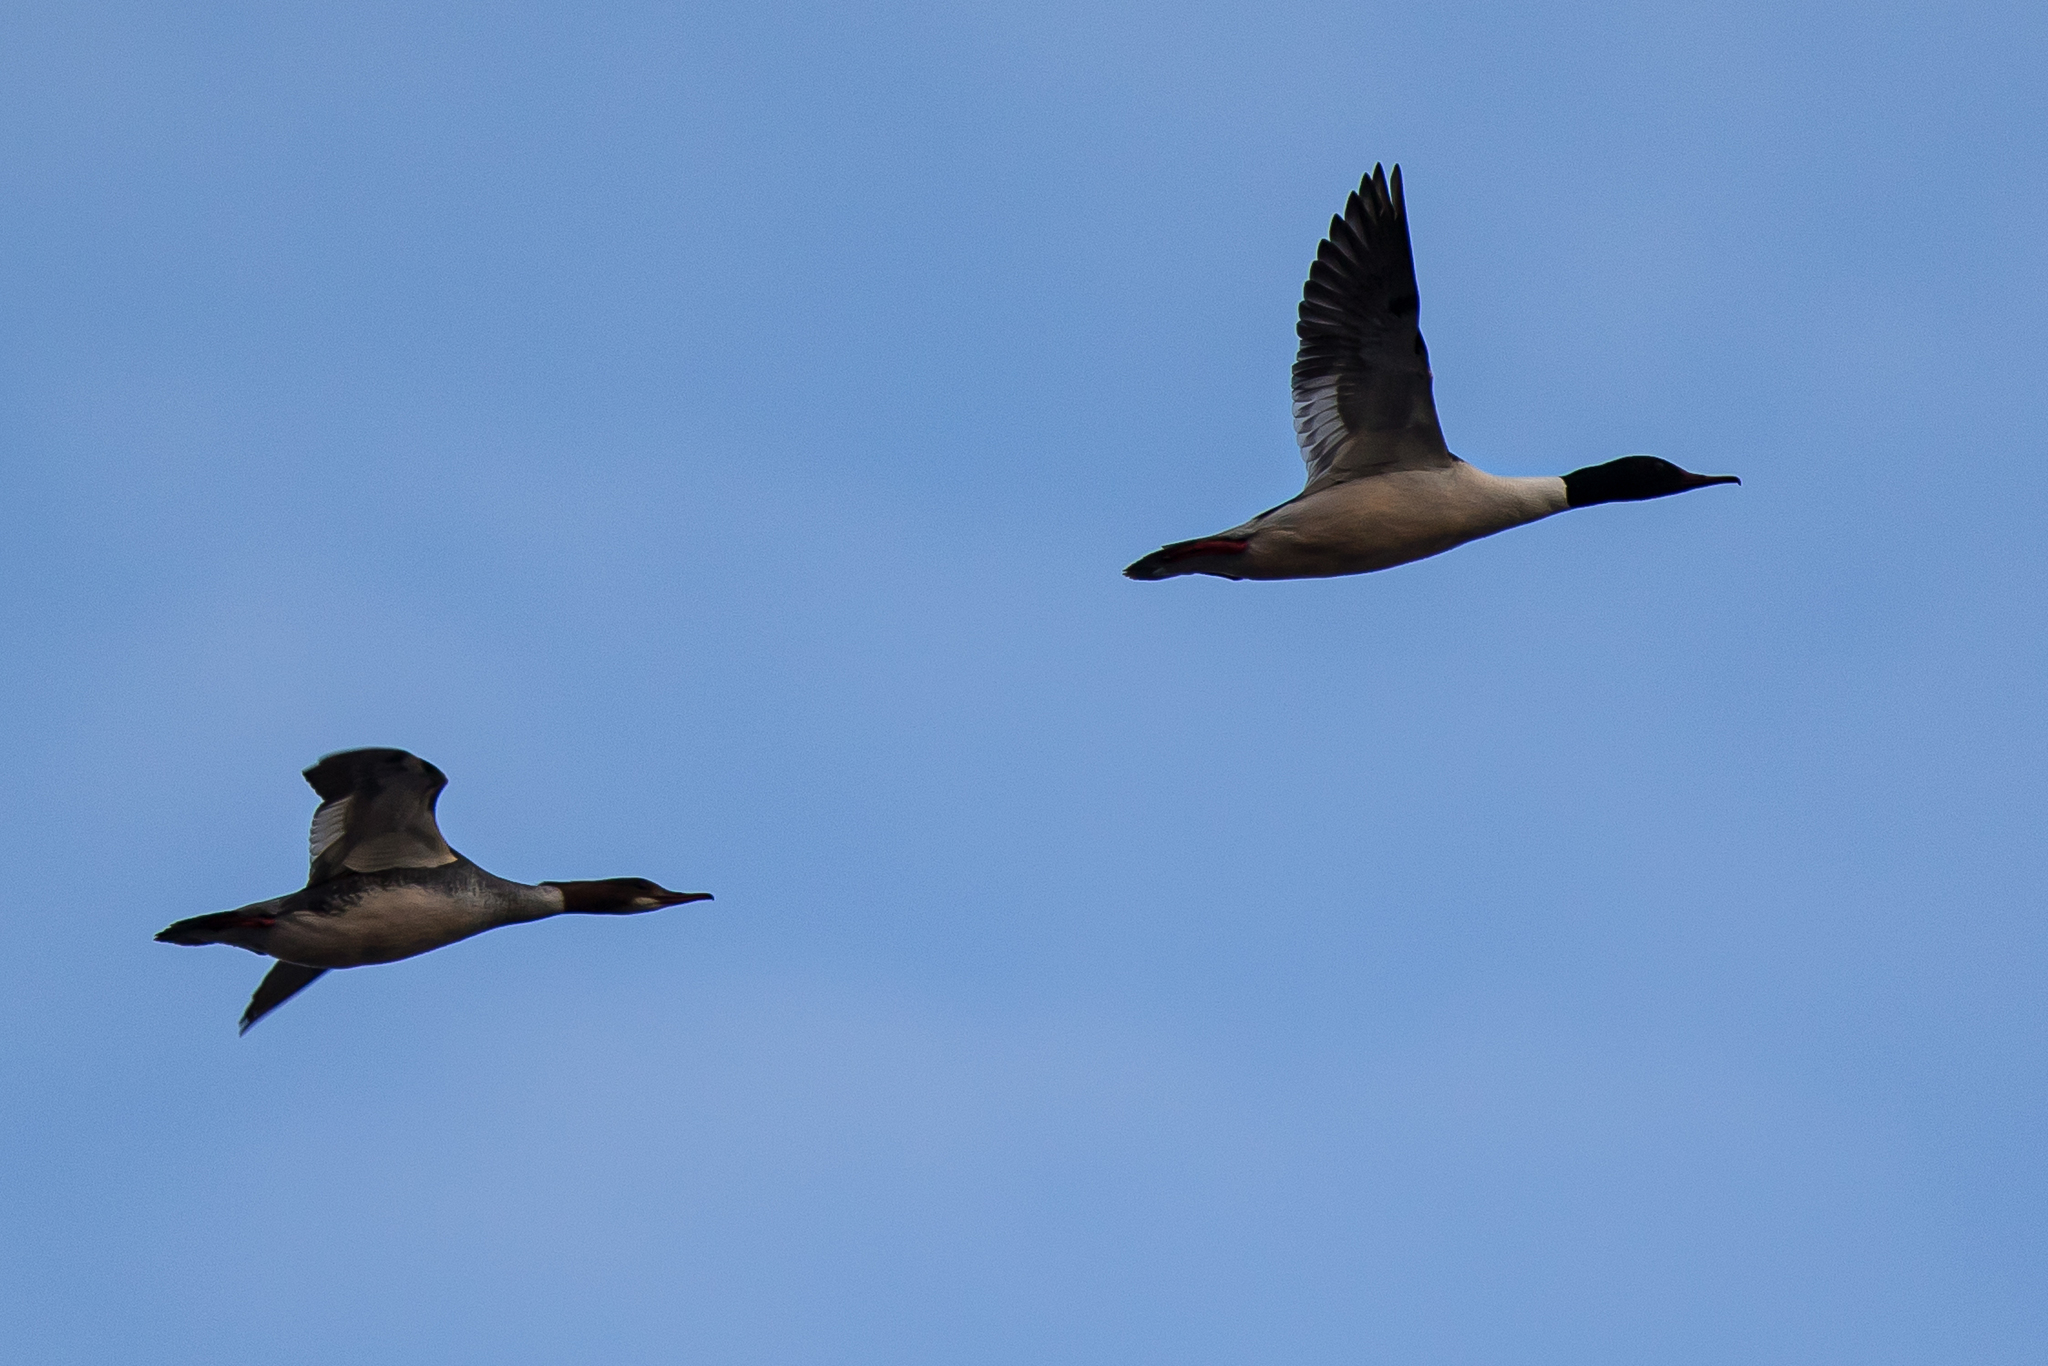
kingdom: Animalia
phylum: Chordata
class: Aves
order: Anseriformes
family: Anatidae
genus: Mergus
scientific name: Mergus merganser
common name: Common merganser
